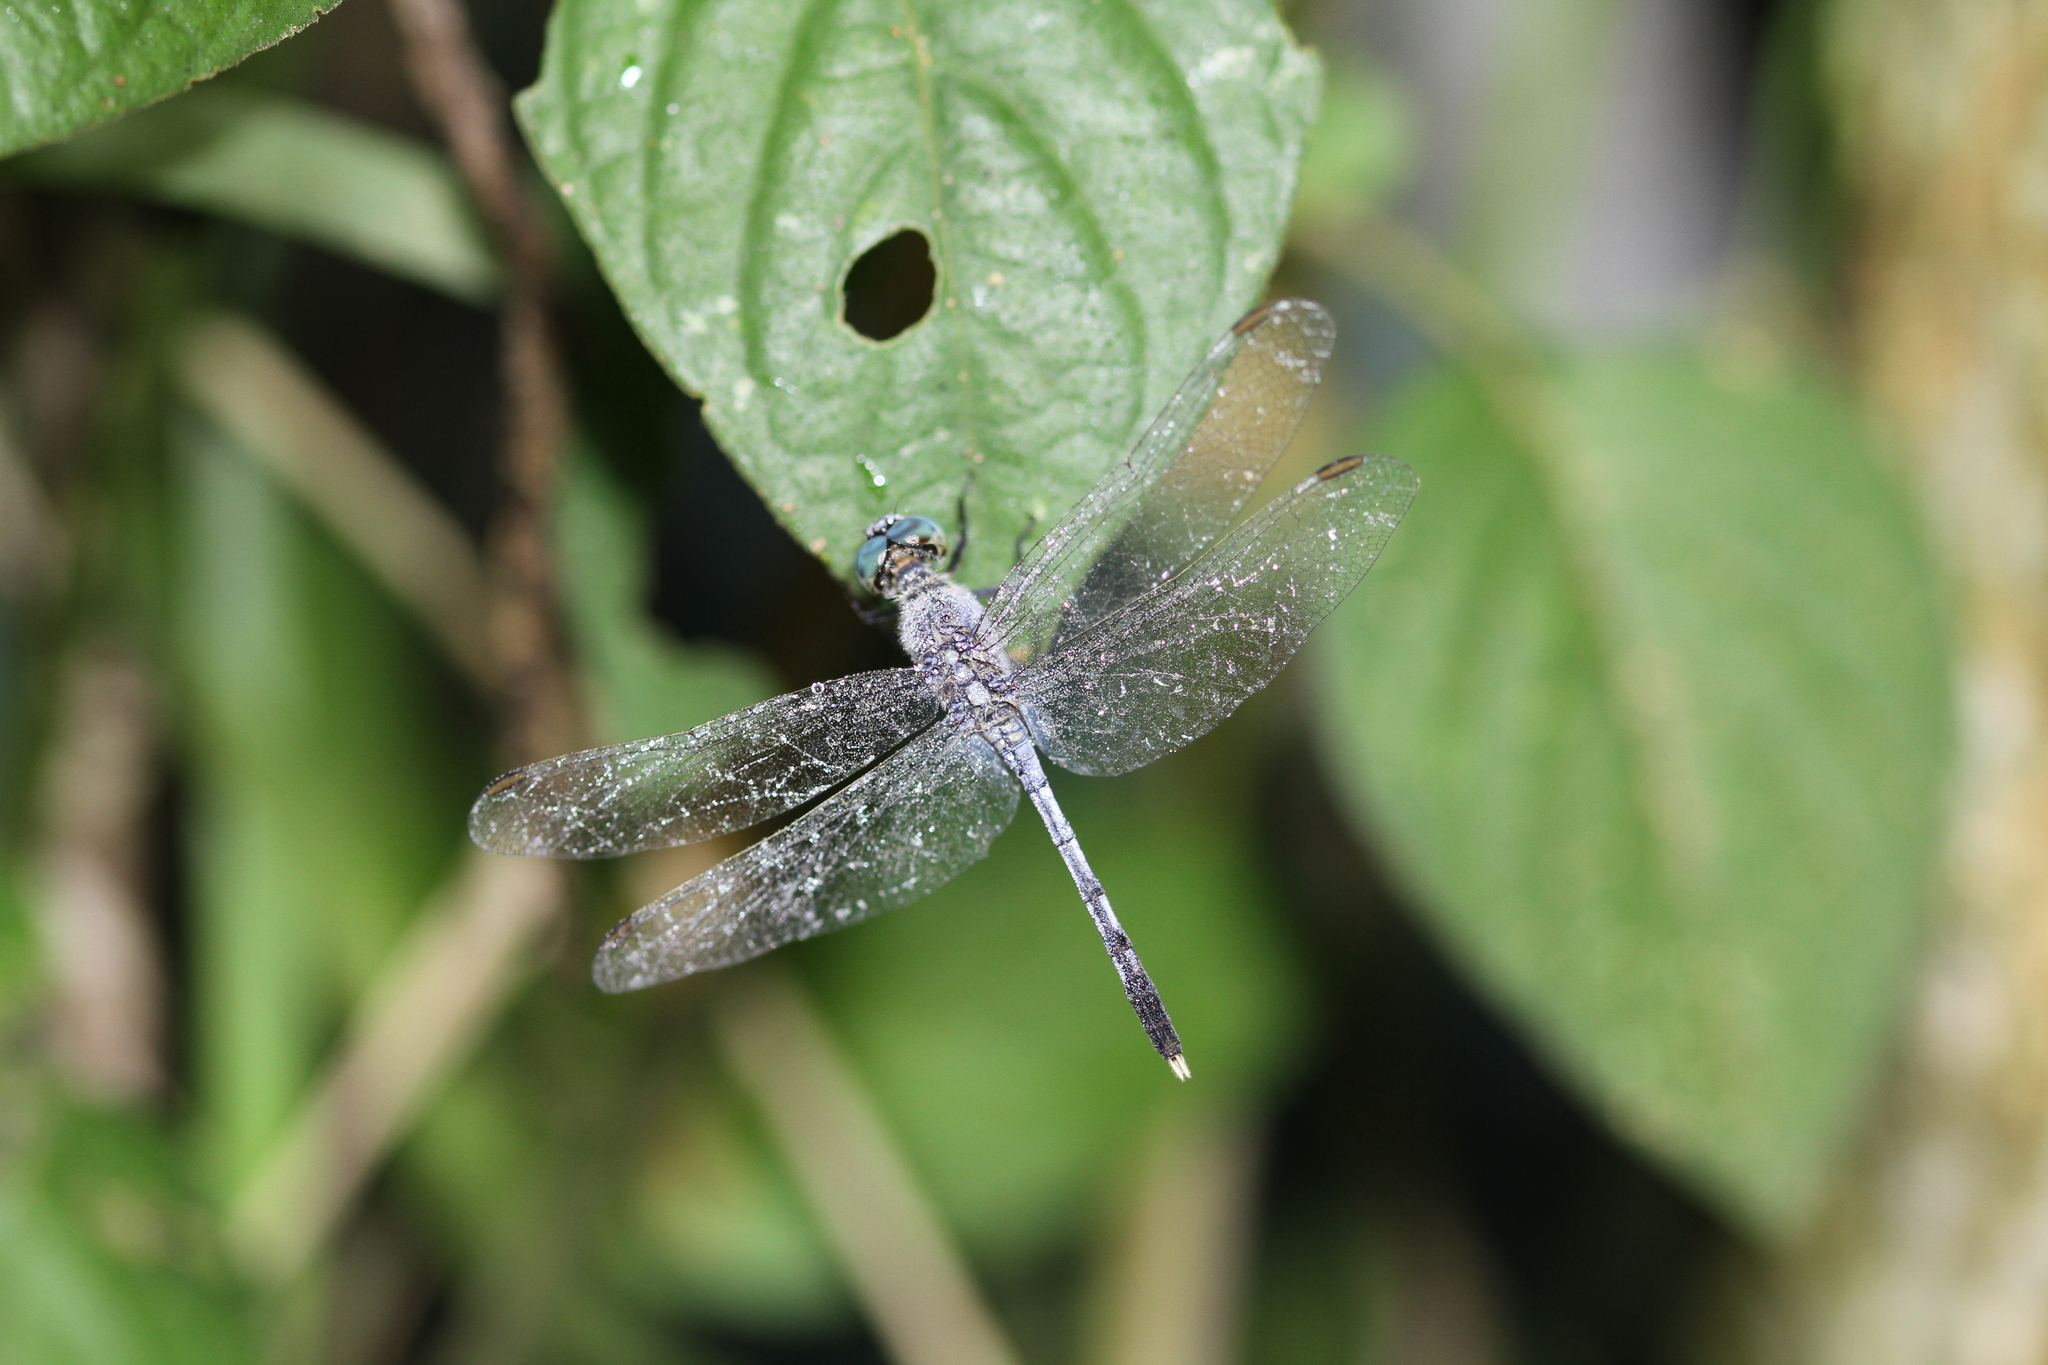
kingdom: Animalia
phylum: Arthropoda
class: Insecta
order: Odonata
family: Libellulidae
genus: Diplacodes
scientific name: Diplacodes trivialis
